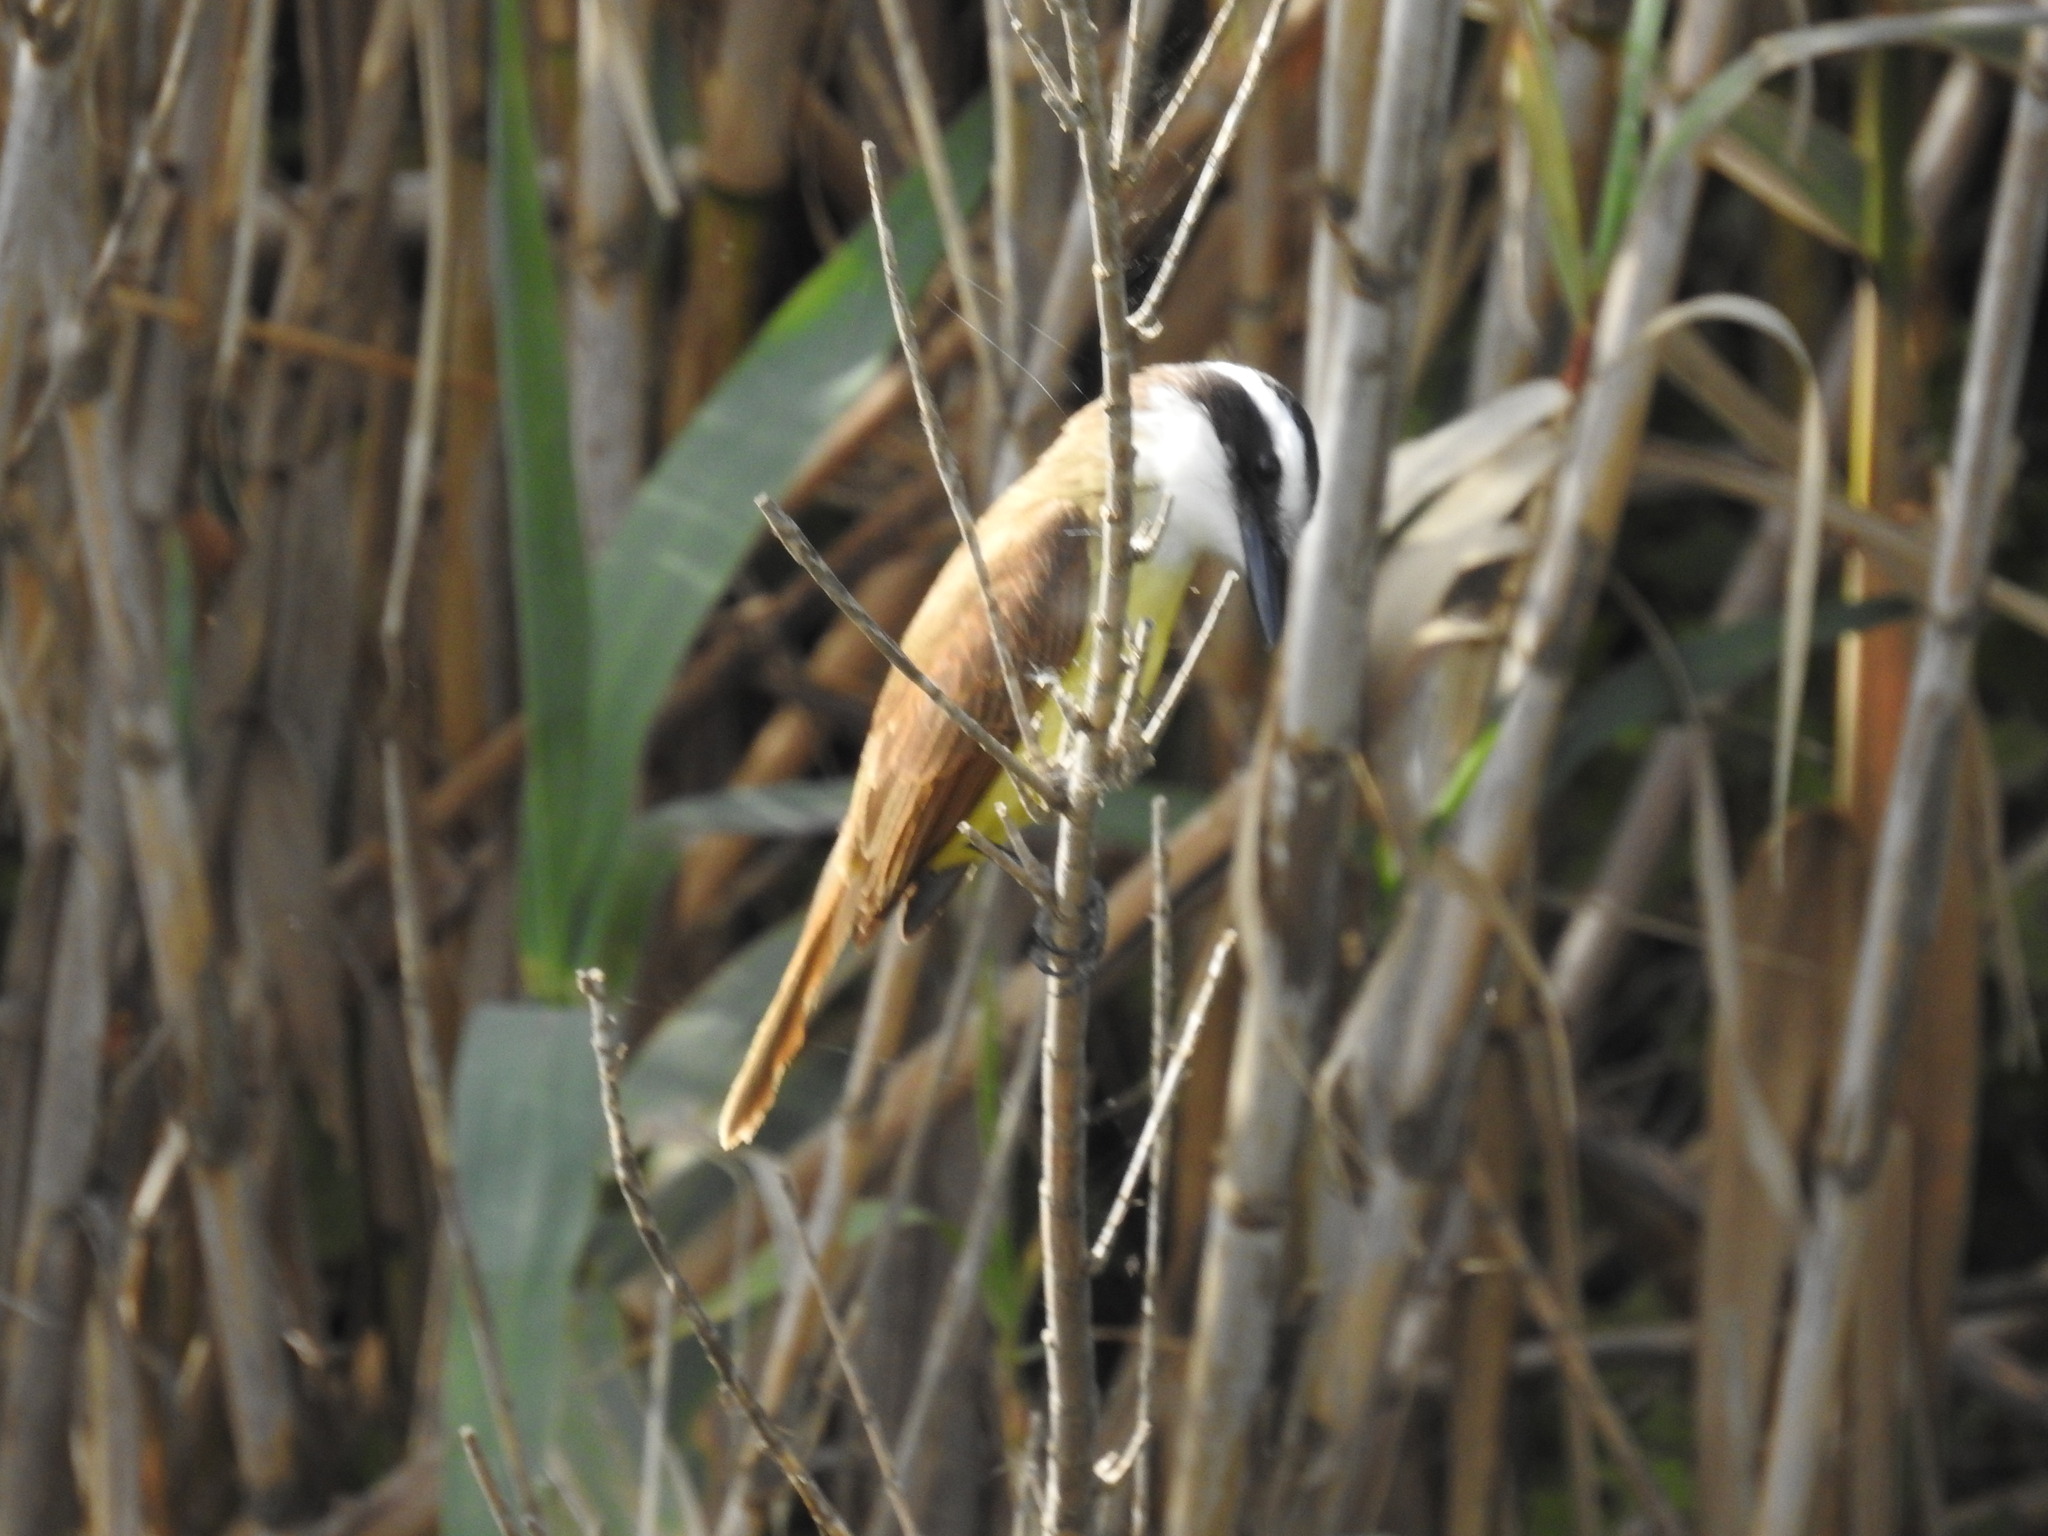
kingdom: Animalia
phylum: Chordata
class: Aves
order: Passeriformes
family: Tyrannidae
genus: Pitangus
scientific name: Pitangus sulphuratus
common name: Great kiskadee
